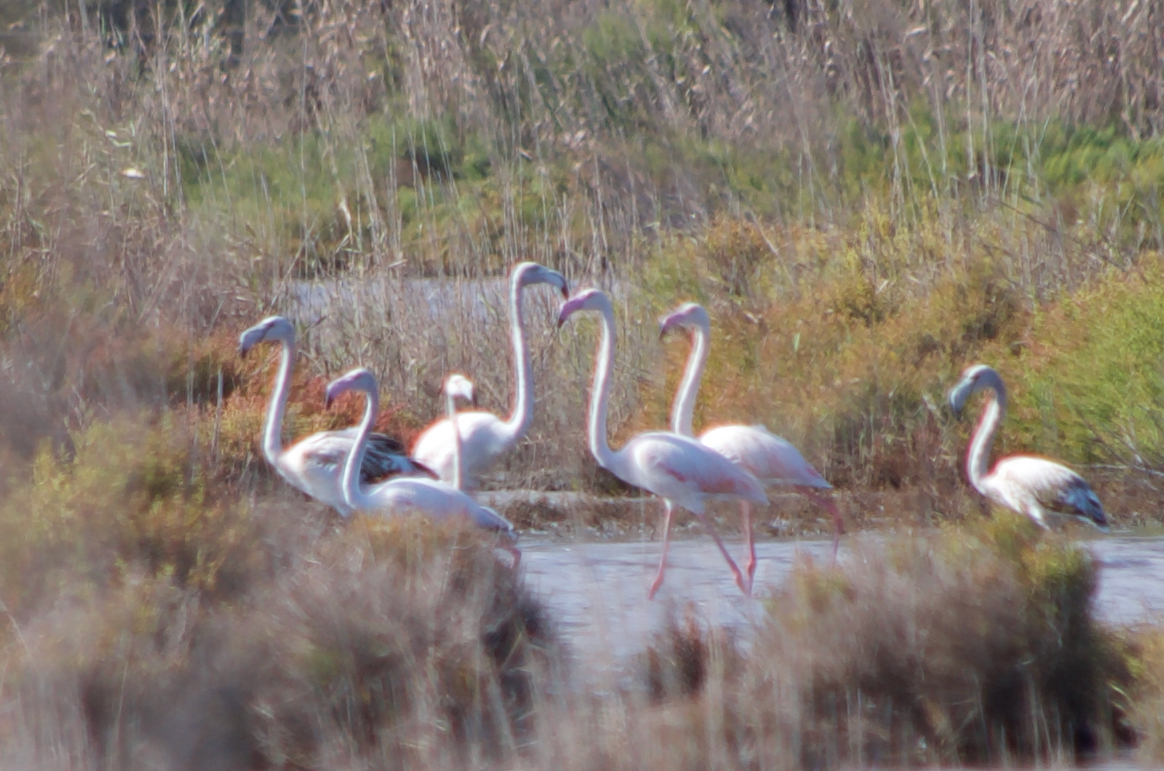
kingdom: Animalia
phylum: Chordata
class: Aves
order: Phoenicopteriformes
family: Phoenicopteridae
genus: Phoenicopterus
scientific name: Phoenicopterus roseus
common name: Greater flamingo
